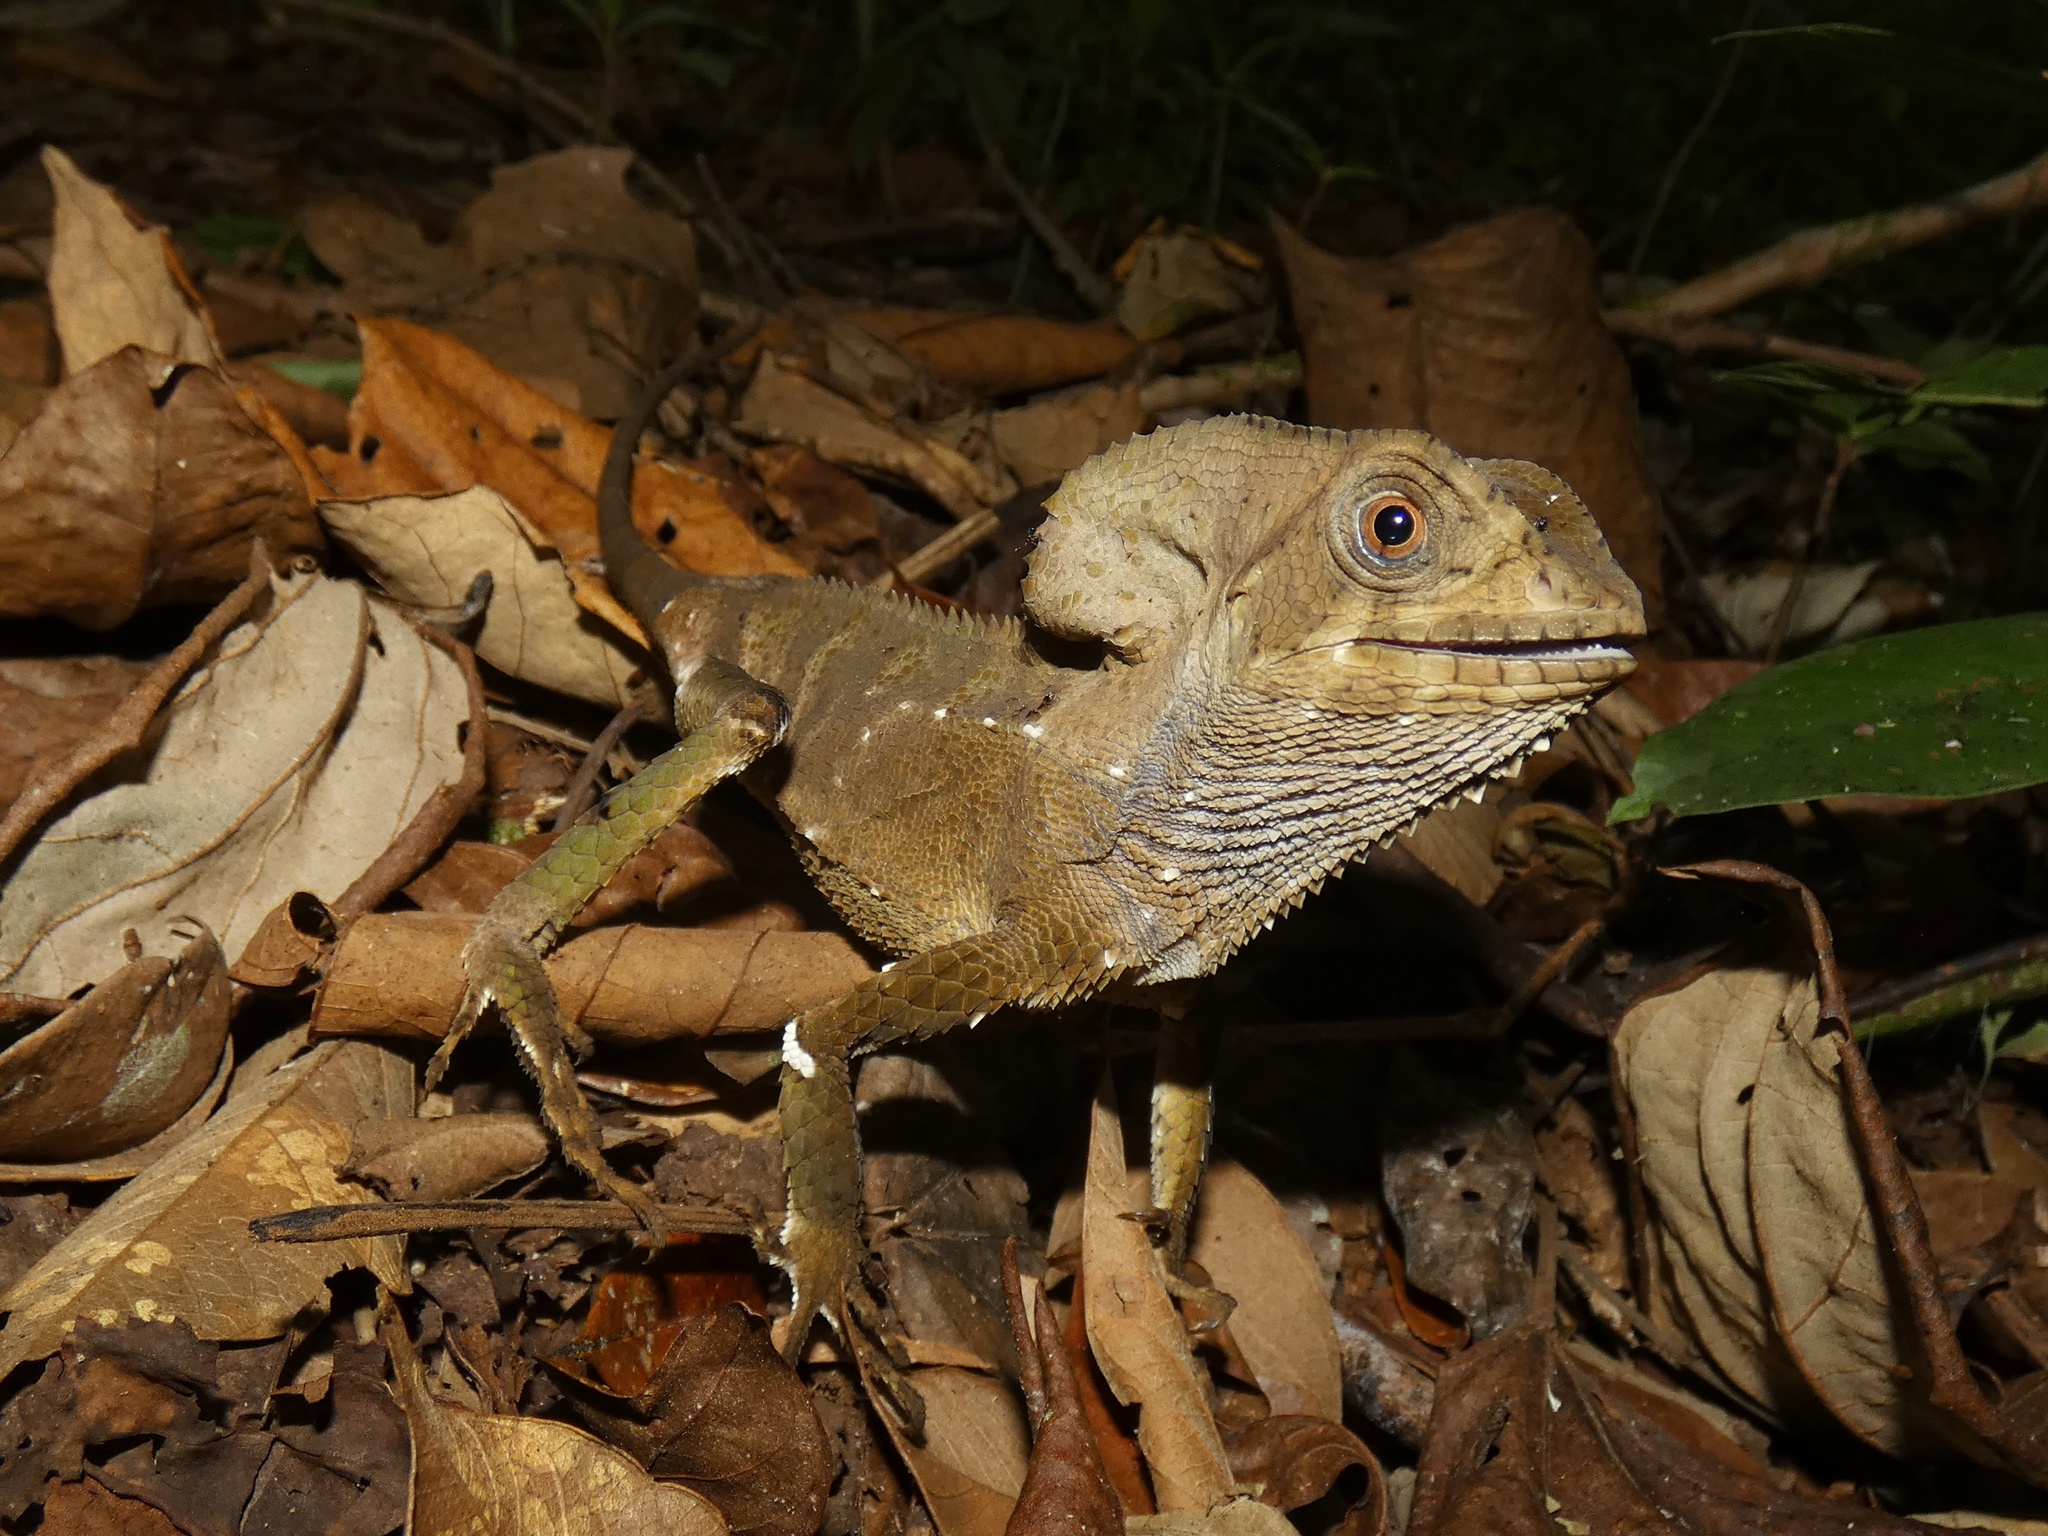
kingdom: Animalia
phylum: Chordata
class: Squamata
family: Corytophanidae
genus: Corytophanes
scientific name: Corytophanes cristatus
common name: Smooth helmeted iguana
